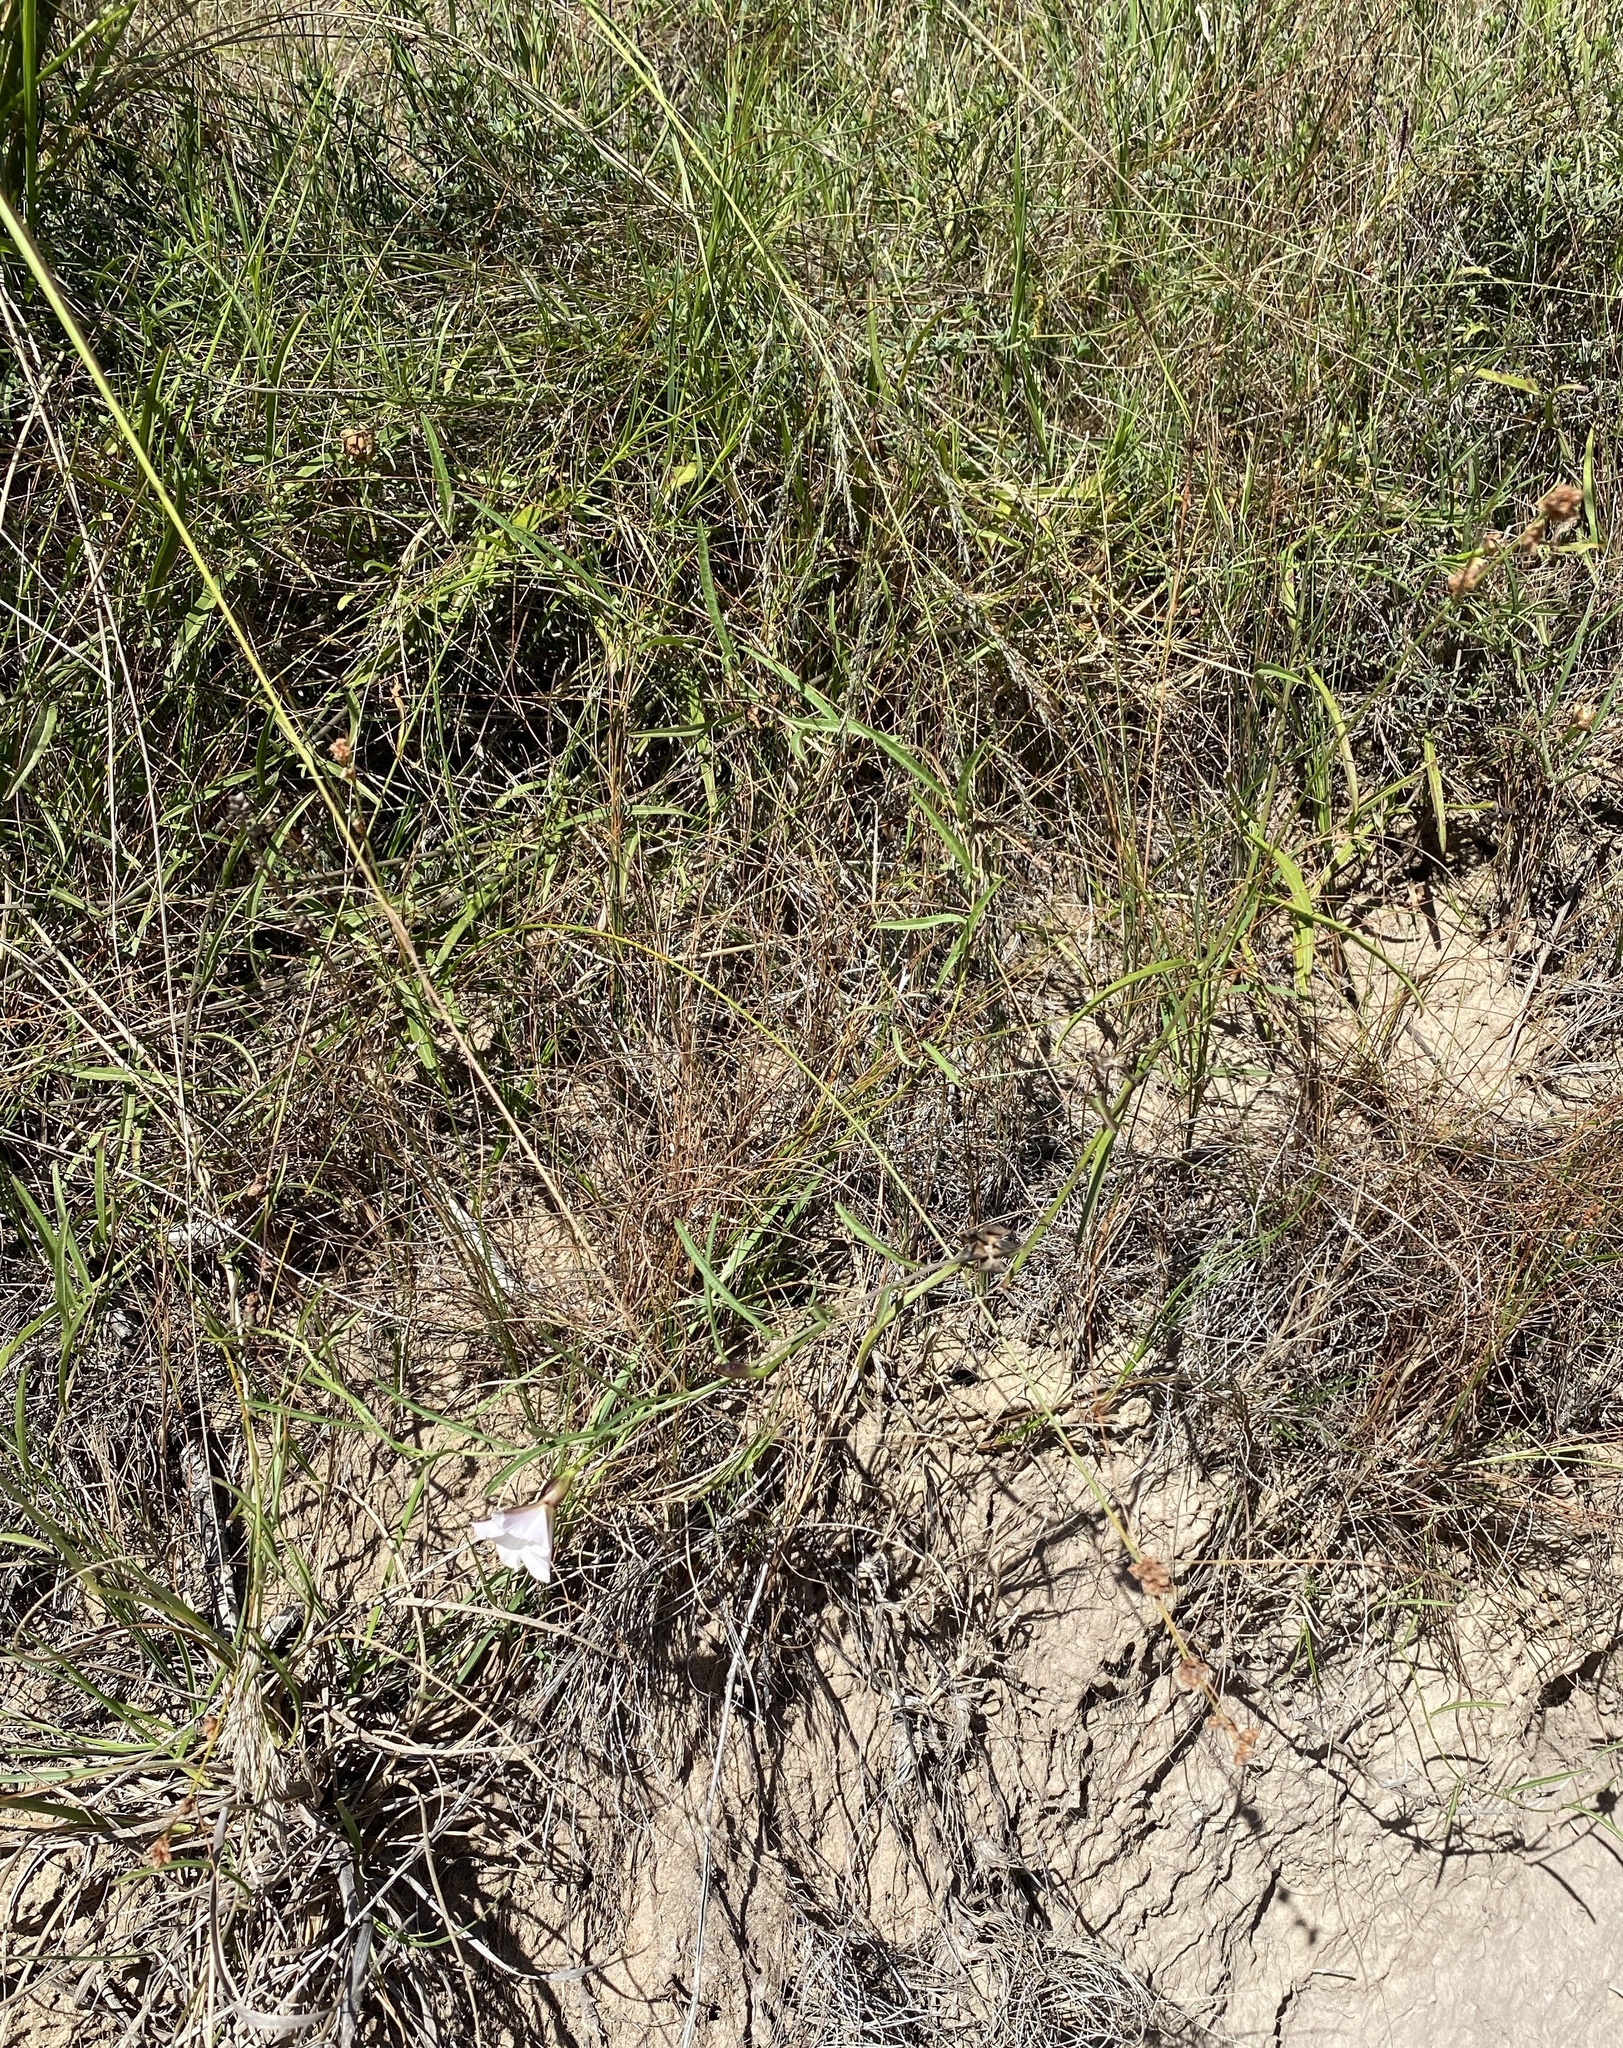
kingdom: Plantae
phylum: Tracheophyta
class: Magnoliopsida
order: Solanales
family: Convolvulaceae
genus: Convolvulus
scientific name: Convolvulus sagittatus
